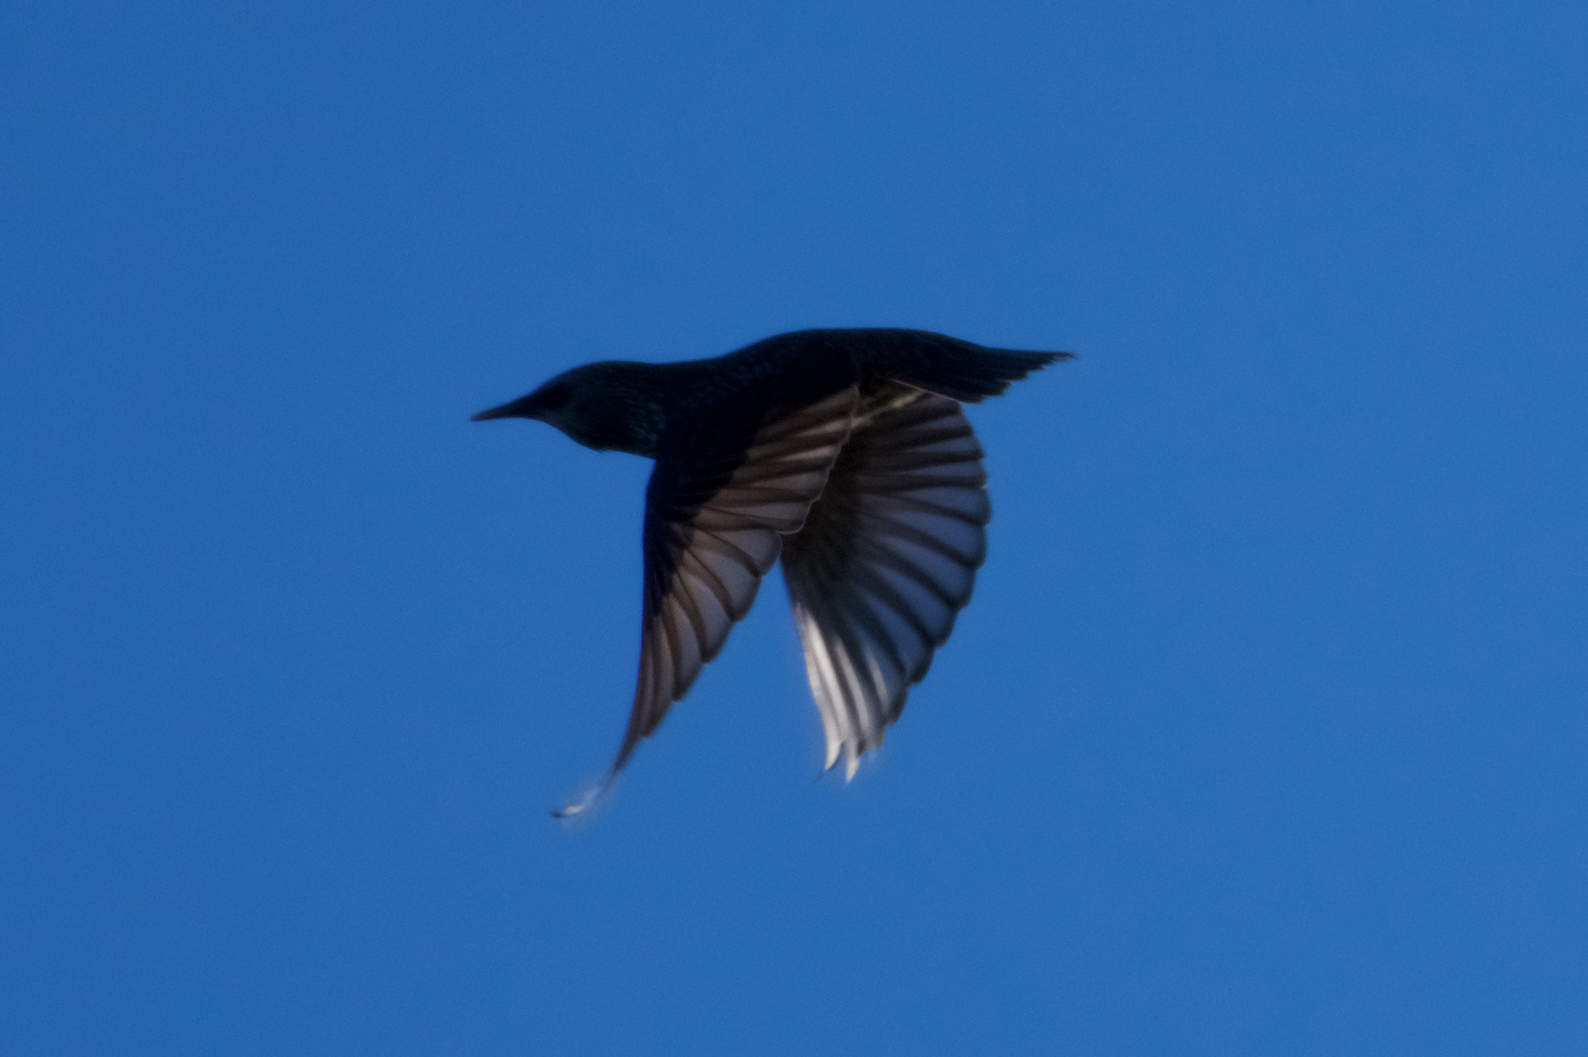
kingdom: Animalia
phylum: Chordata
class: Aves
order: Passeriformes
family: Sturnidae
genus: Sturnus
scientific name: Sturnus vulgaris
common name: Common starling
